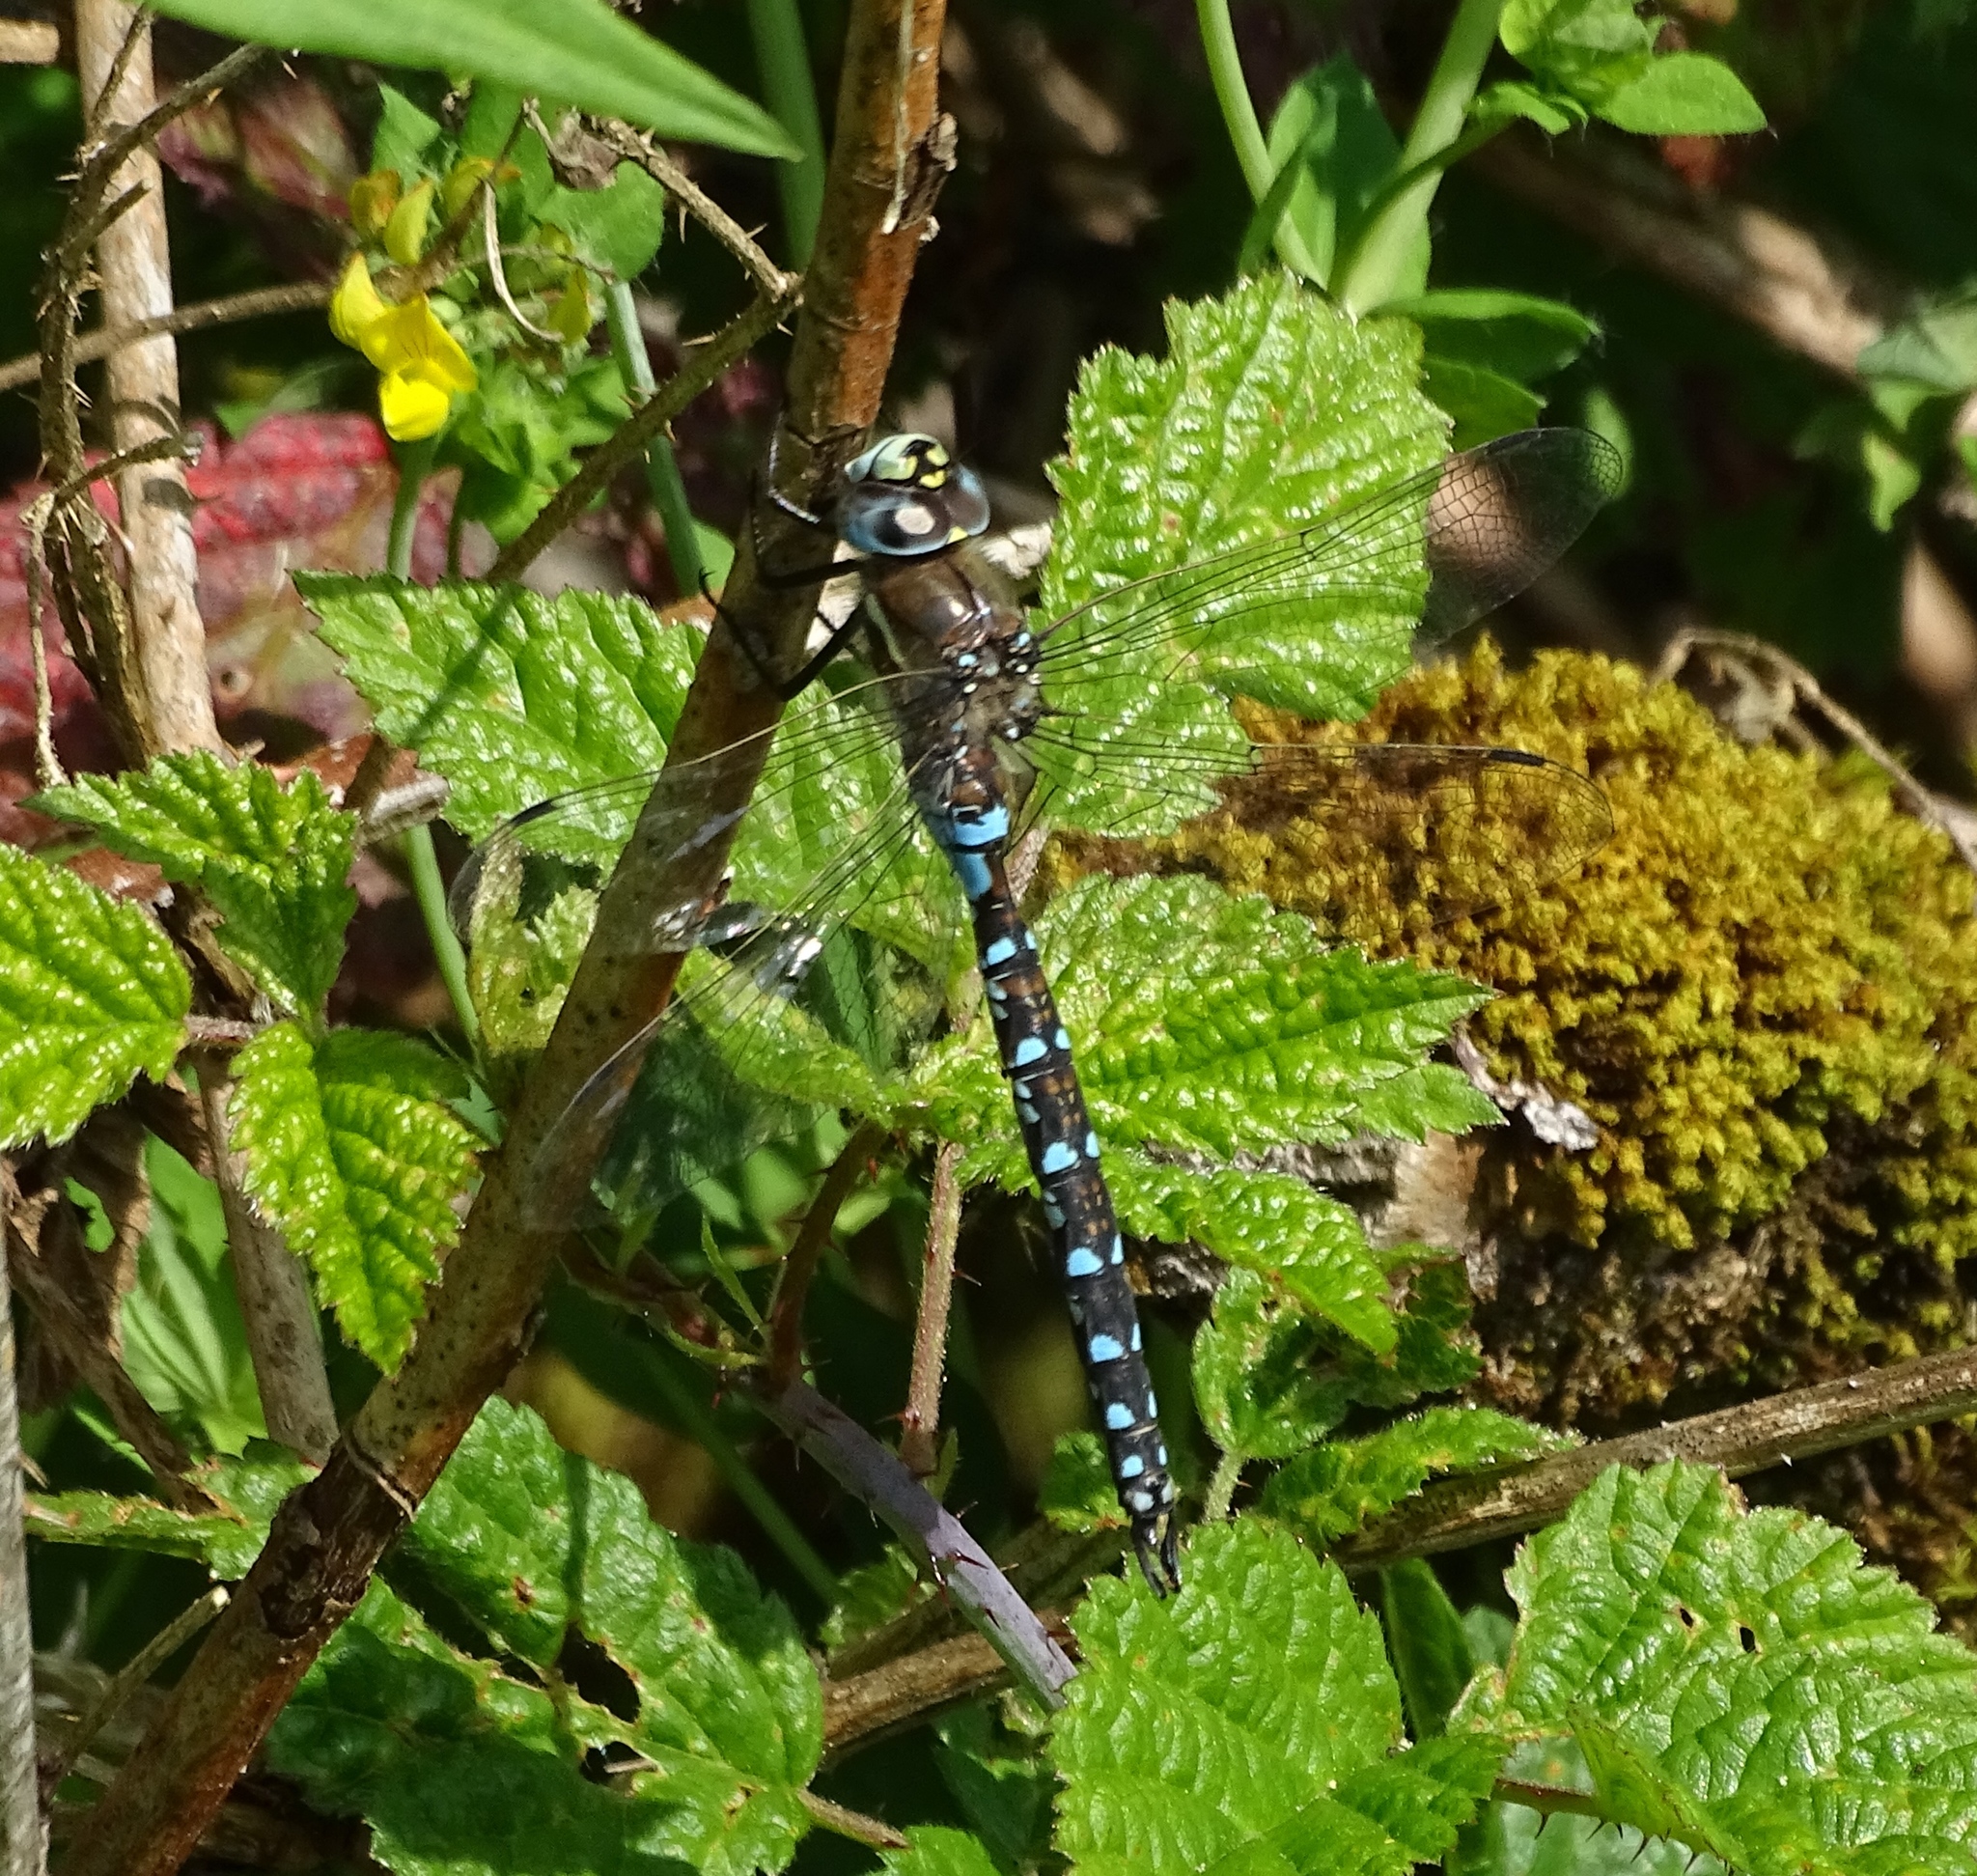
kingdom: Animalia
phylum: Arthropoda
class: Insecta
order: Odonata
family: Aeshnidae
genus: Rhionaeschna
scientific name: Rhionaeschna californica
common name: California darner
